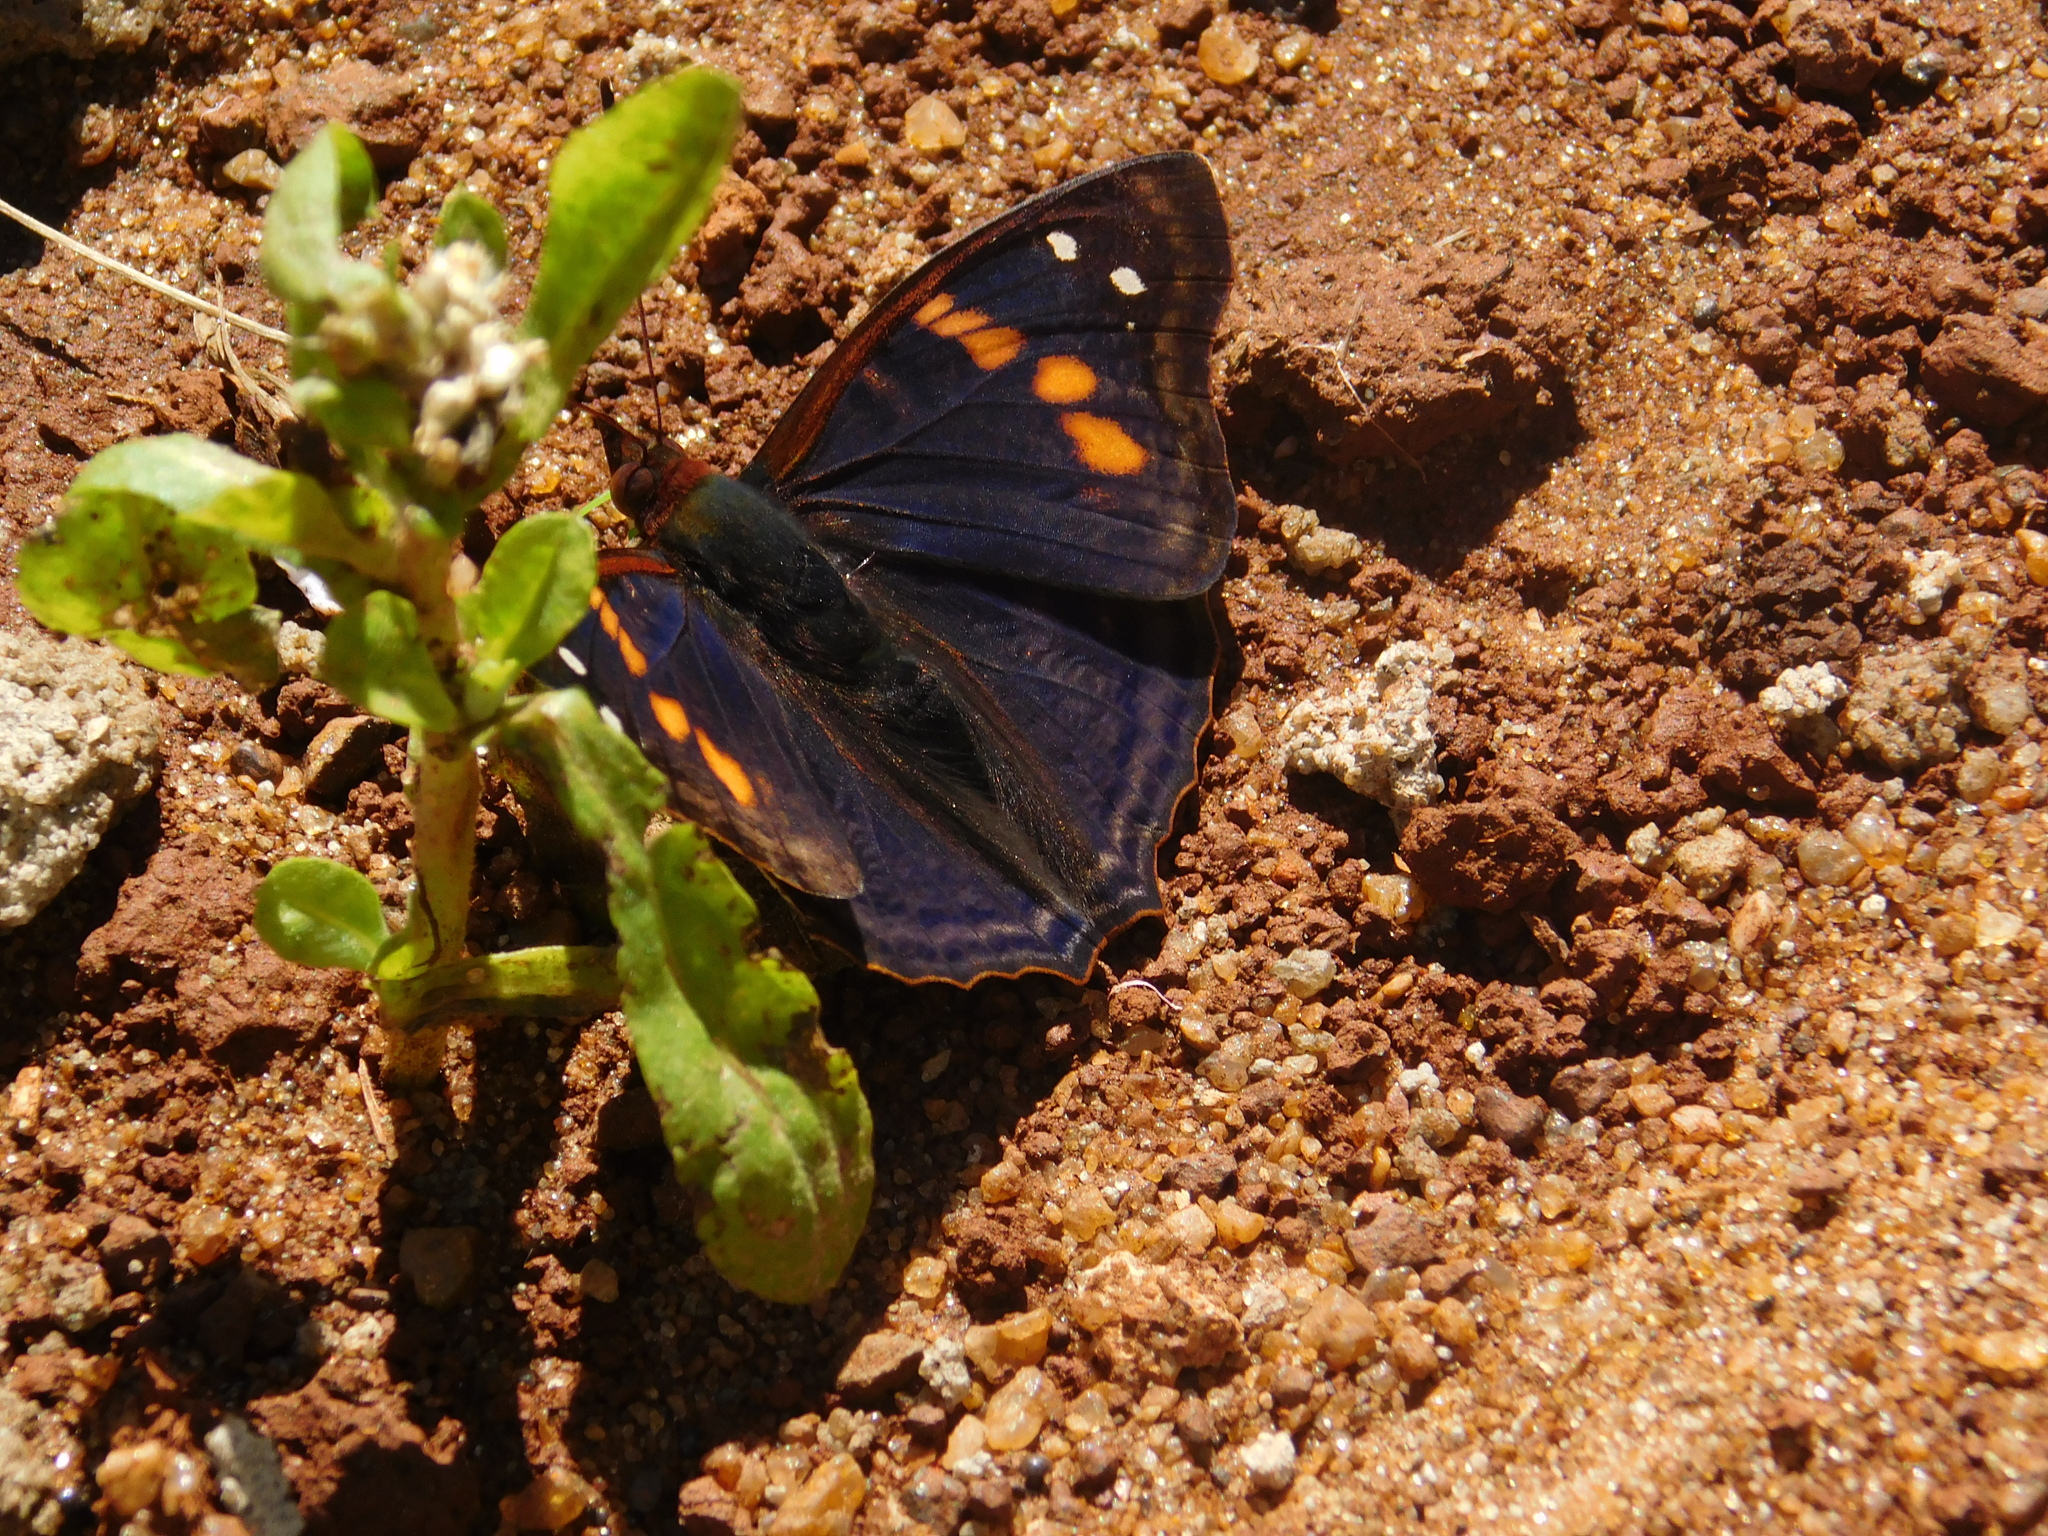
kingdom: Animalia
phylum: Arthropoda
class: Insecta
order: Lepidoptera
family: Nymphalidae
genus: Doxocopa
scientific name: Doxocopa agathina
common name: Agathina emperor
